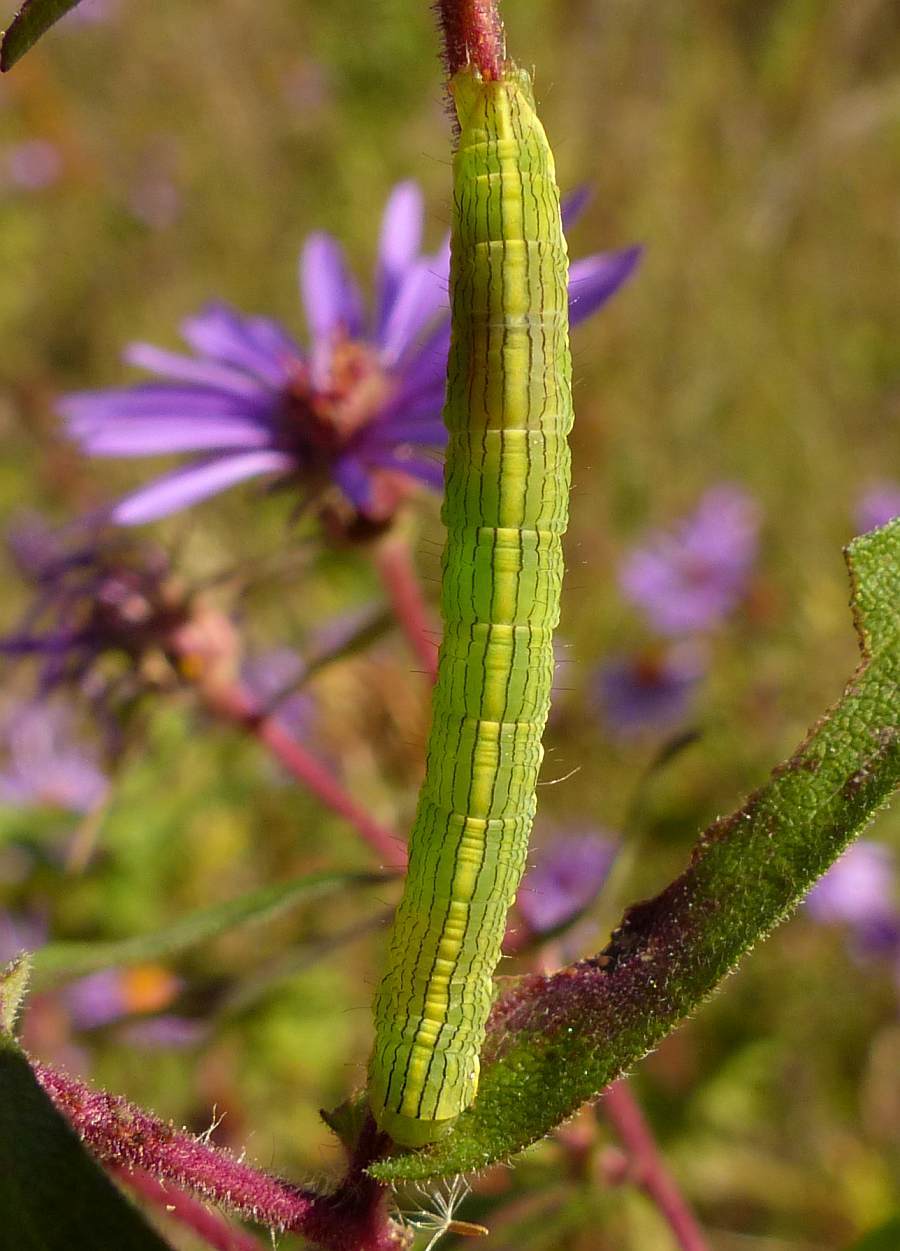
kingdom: Animalia
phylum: Arthropoda
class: Insecta
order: Lepidoptera
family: Noctuidae
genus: Cucullia
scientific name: Cucullia asteroides
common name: Asteroid moth
